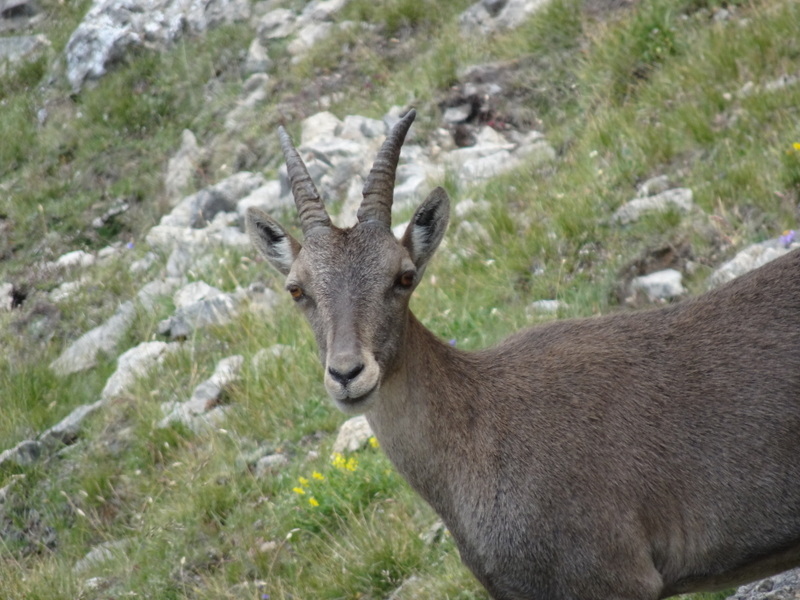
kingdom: Animalia
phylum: Chordata
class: Mammalia
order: Artiodactyla
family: Bovidae
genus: Capra
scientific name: Capra ibex
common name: Alpine ibex
